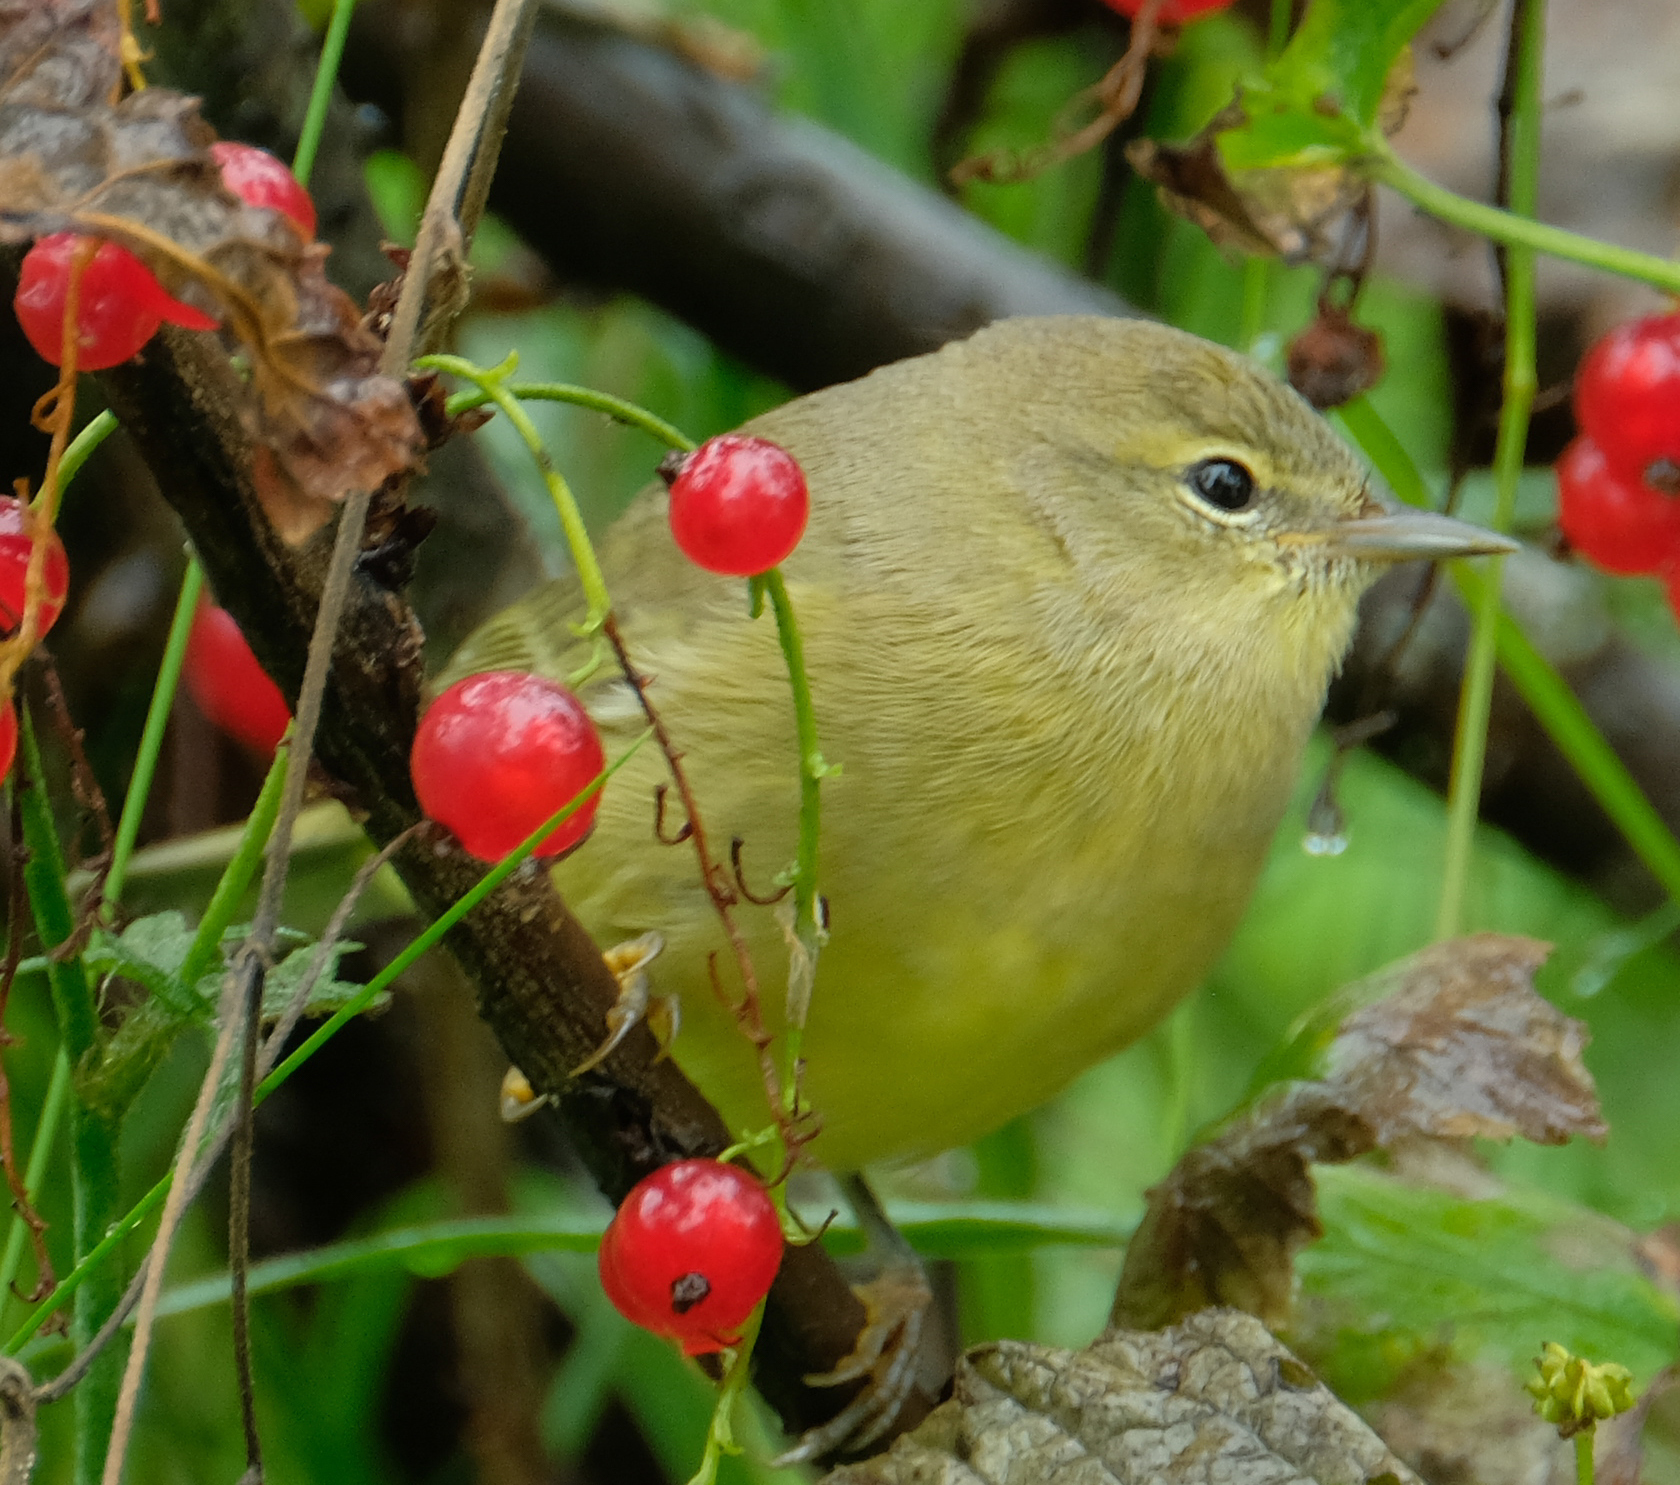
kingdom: Animalia
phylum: Chordata
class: Aves
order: Passeriformes
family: Parulidae
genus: Leiothlypis
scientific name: Leiothlypis celata
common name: Orange-crowned warbler
